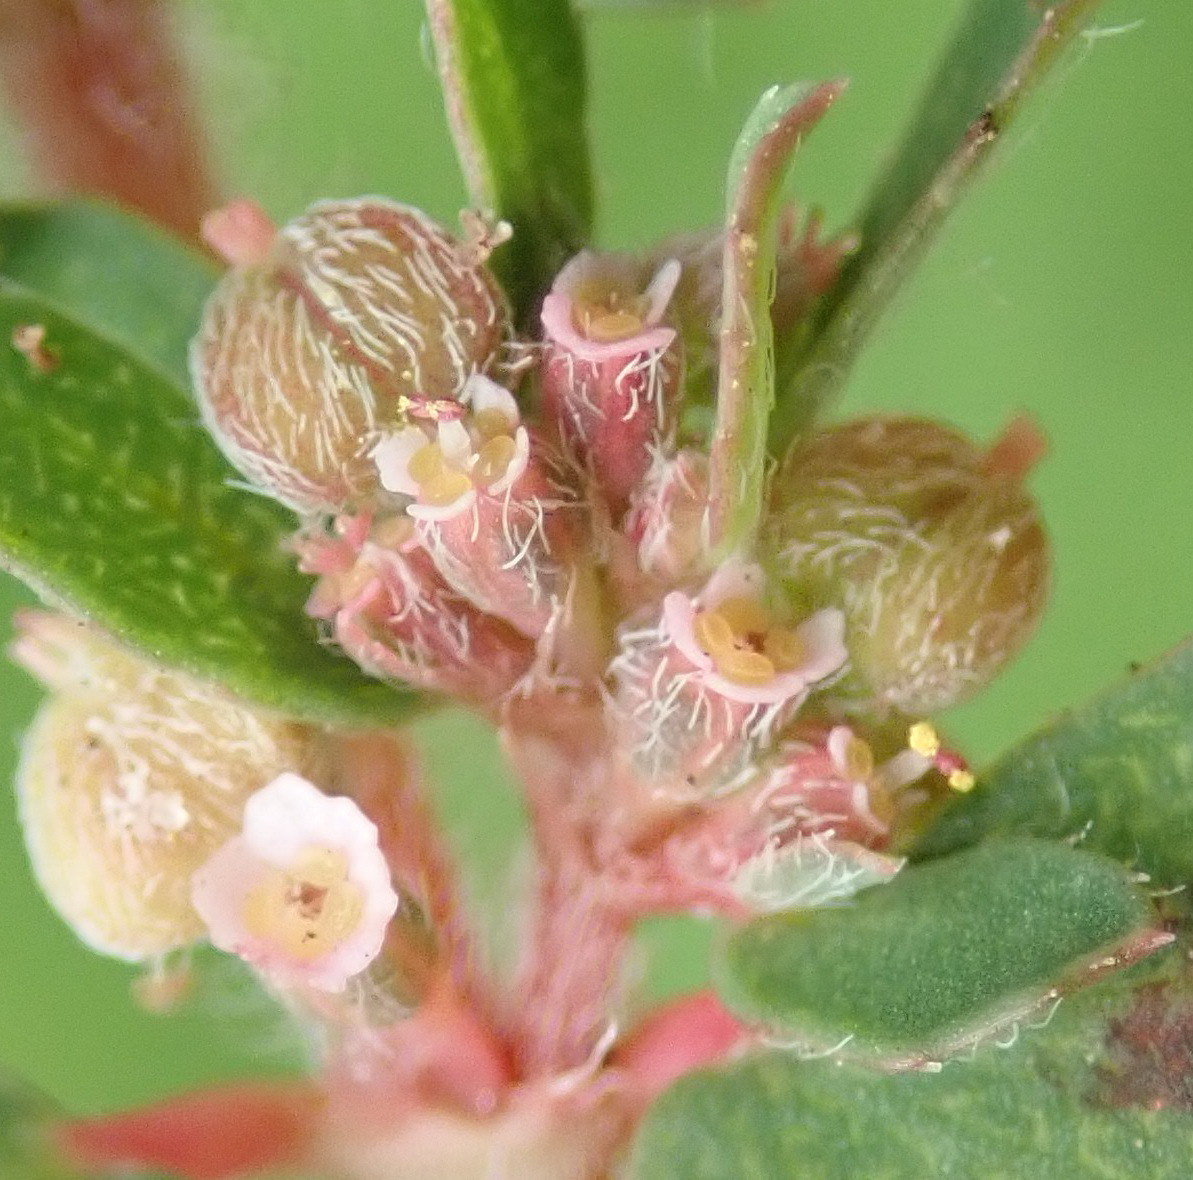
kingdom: Plantae
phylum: Tracheophyta
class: Magnoliopsida
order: Malpighiales
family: Euphorbiaceae
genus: Euphorbia
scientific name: Euphorbia maculata
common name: Spotted spurge
